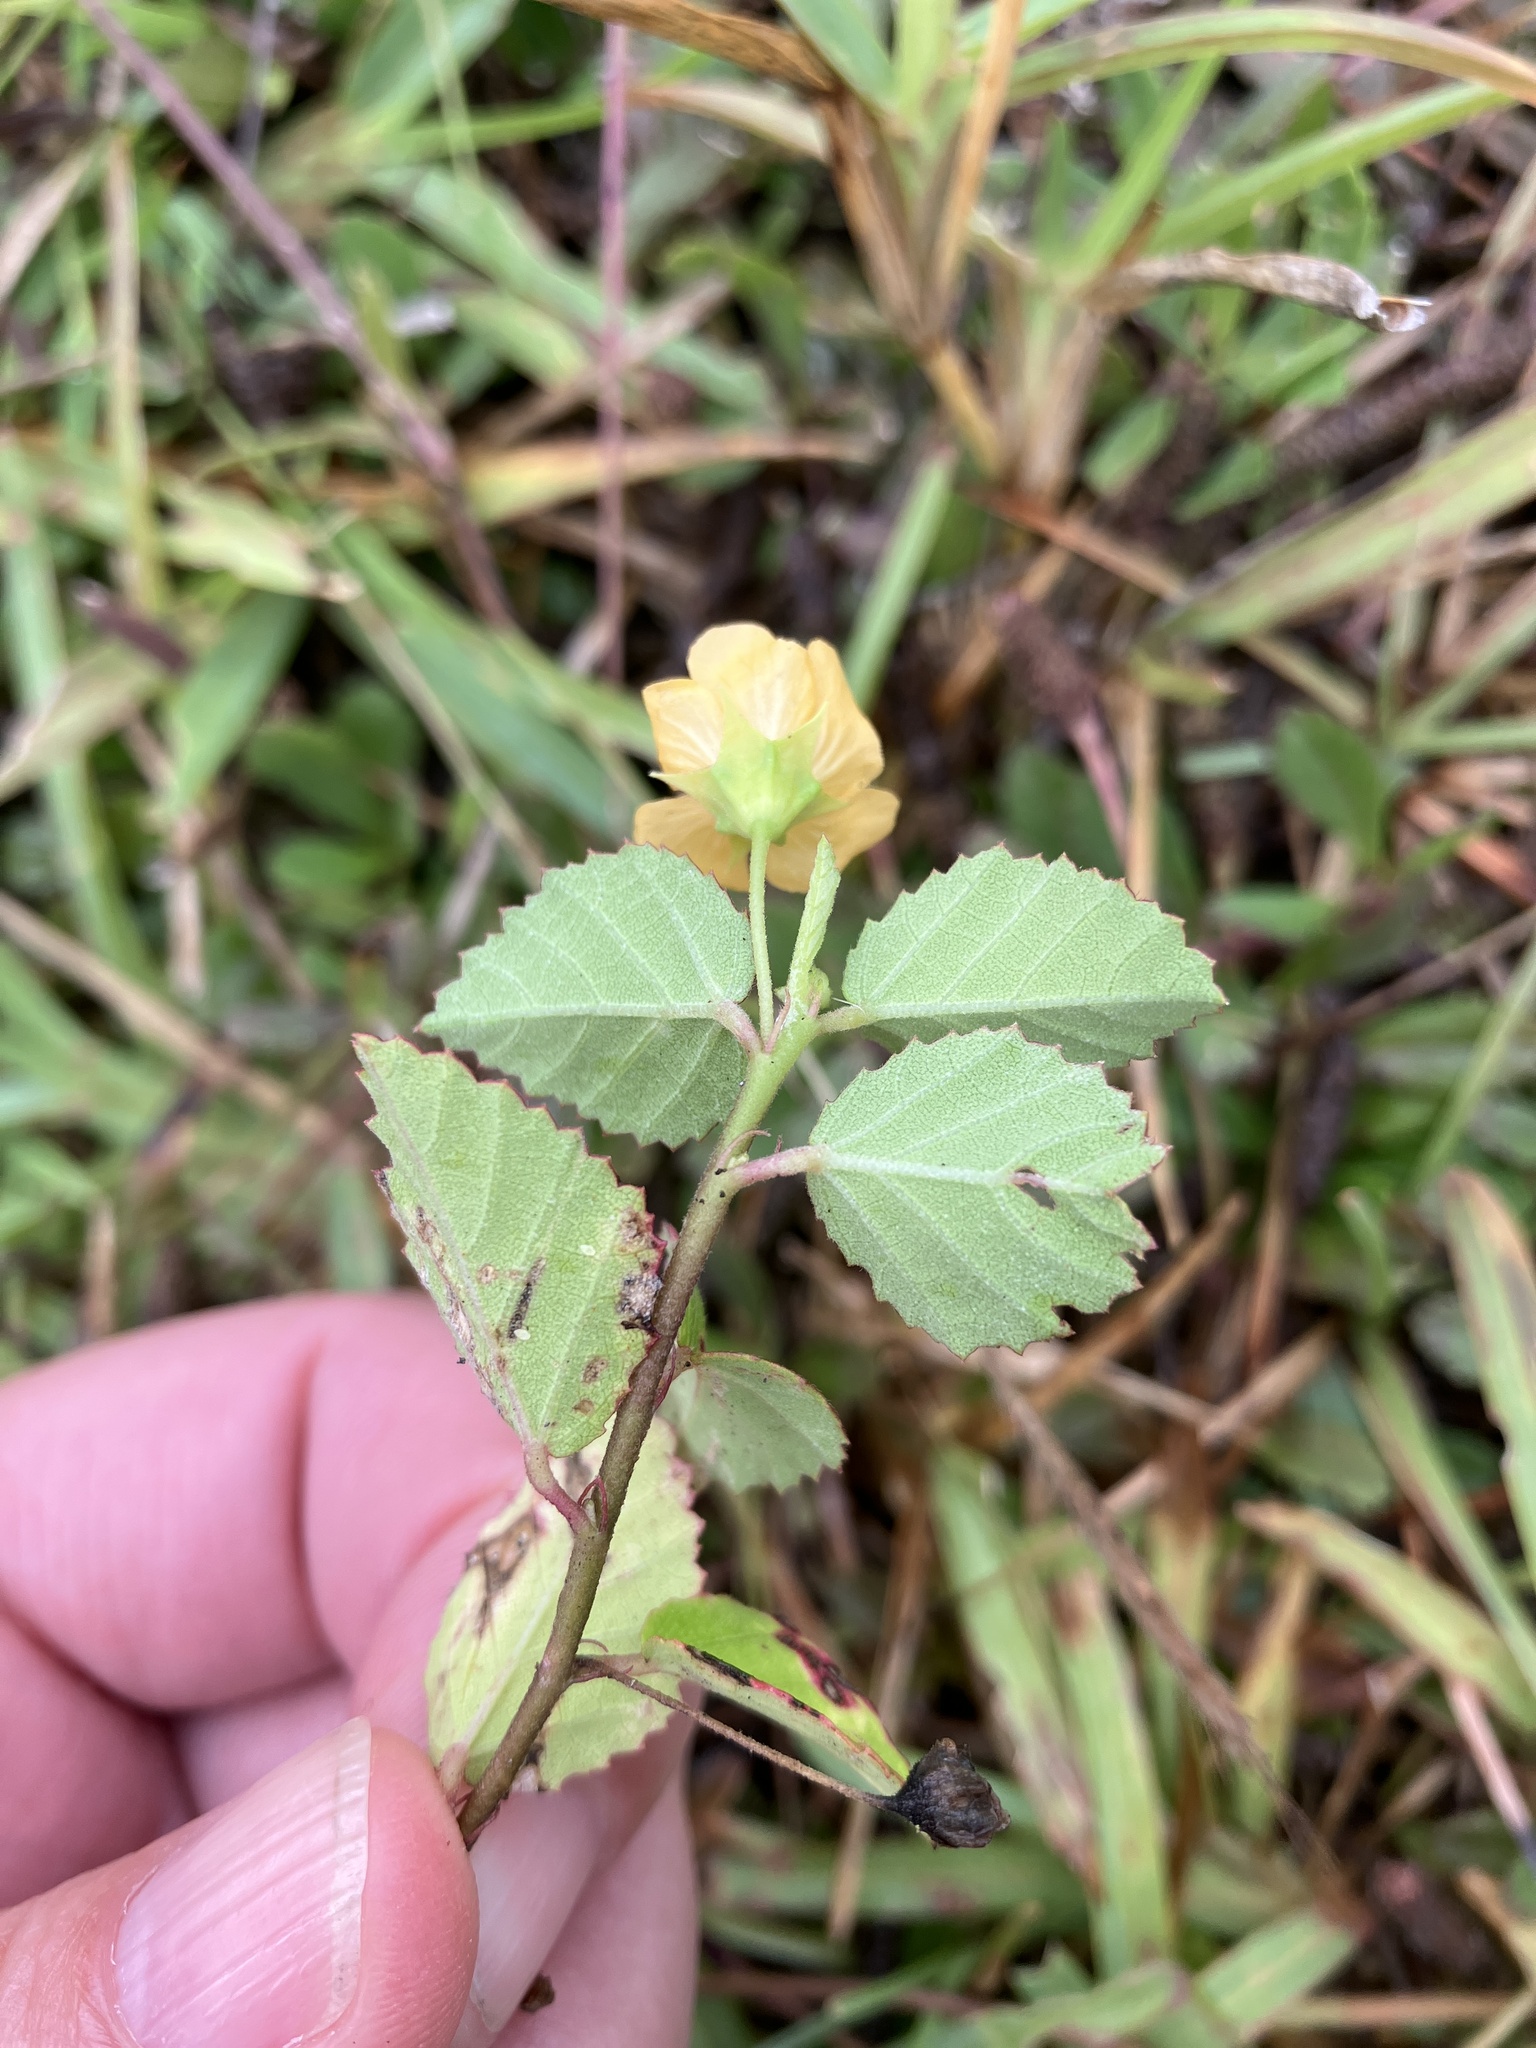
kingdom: Plantae
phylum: Tracheophyta
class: Magnoliopsida
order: Malvales
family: Malvaceae
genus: Sida
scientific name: Sida pusilla
